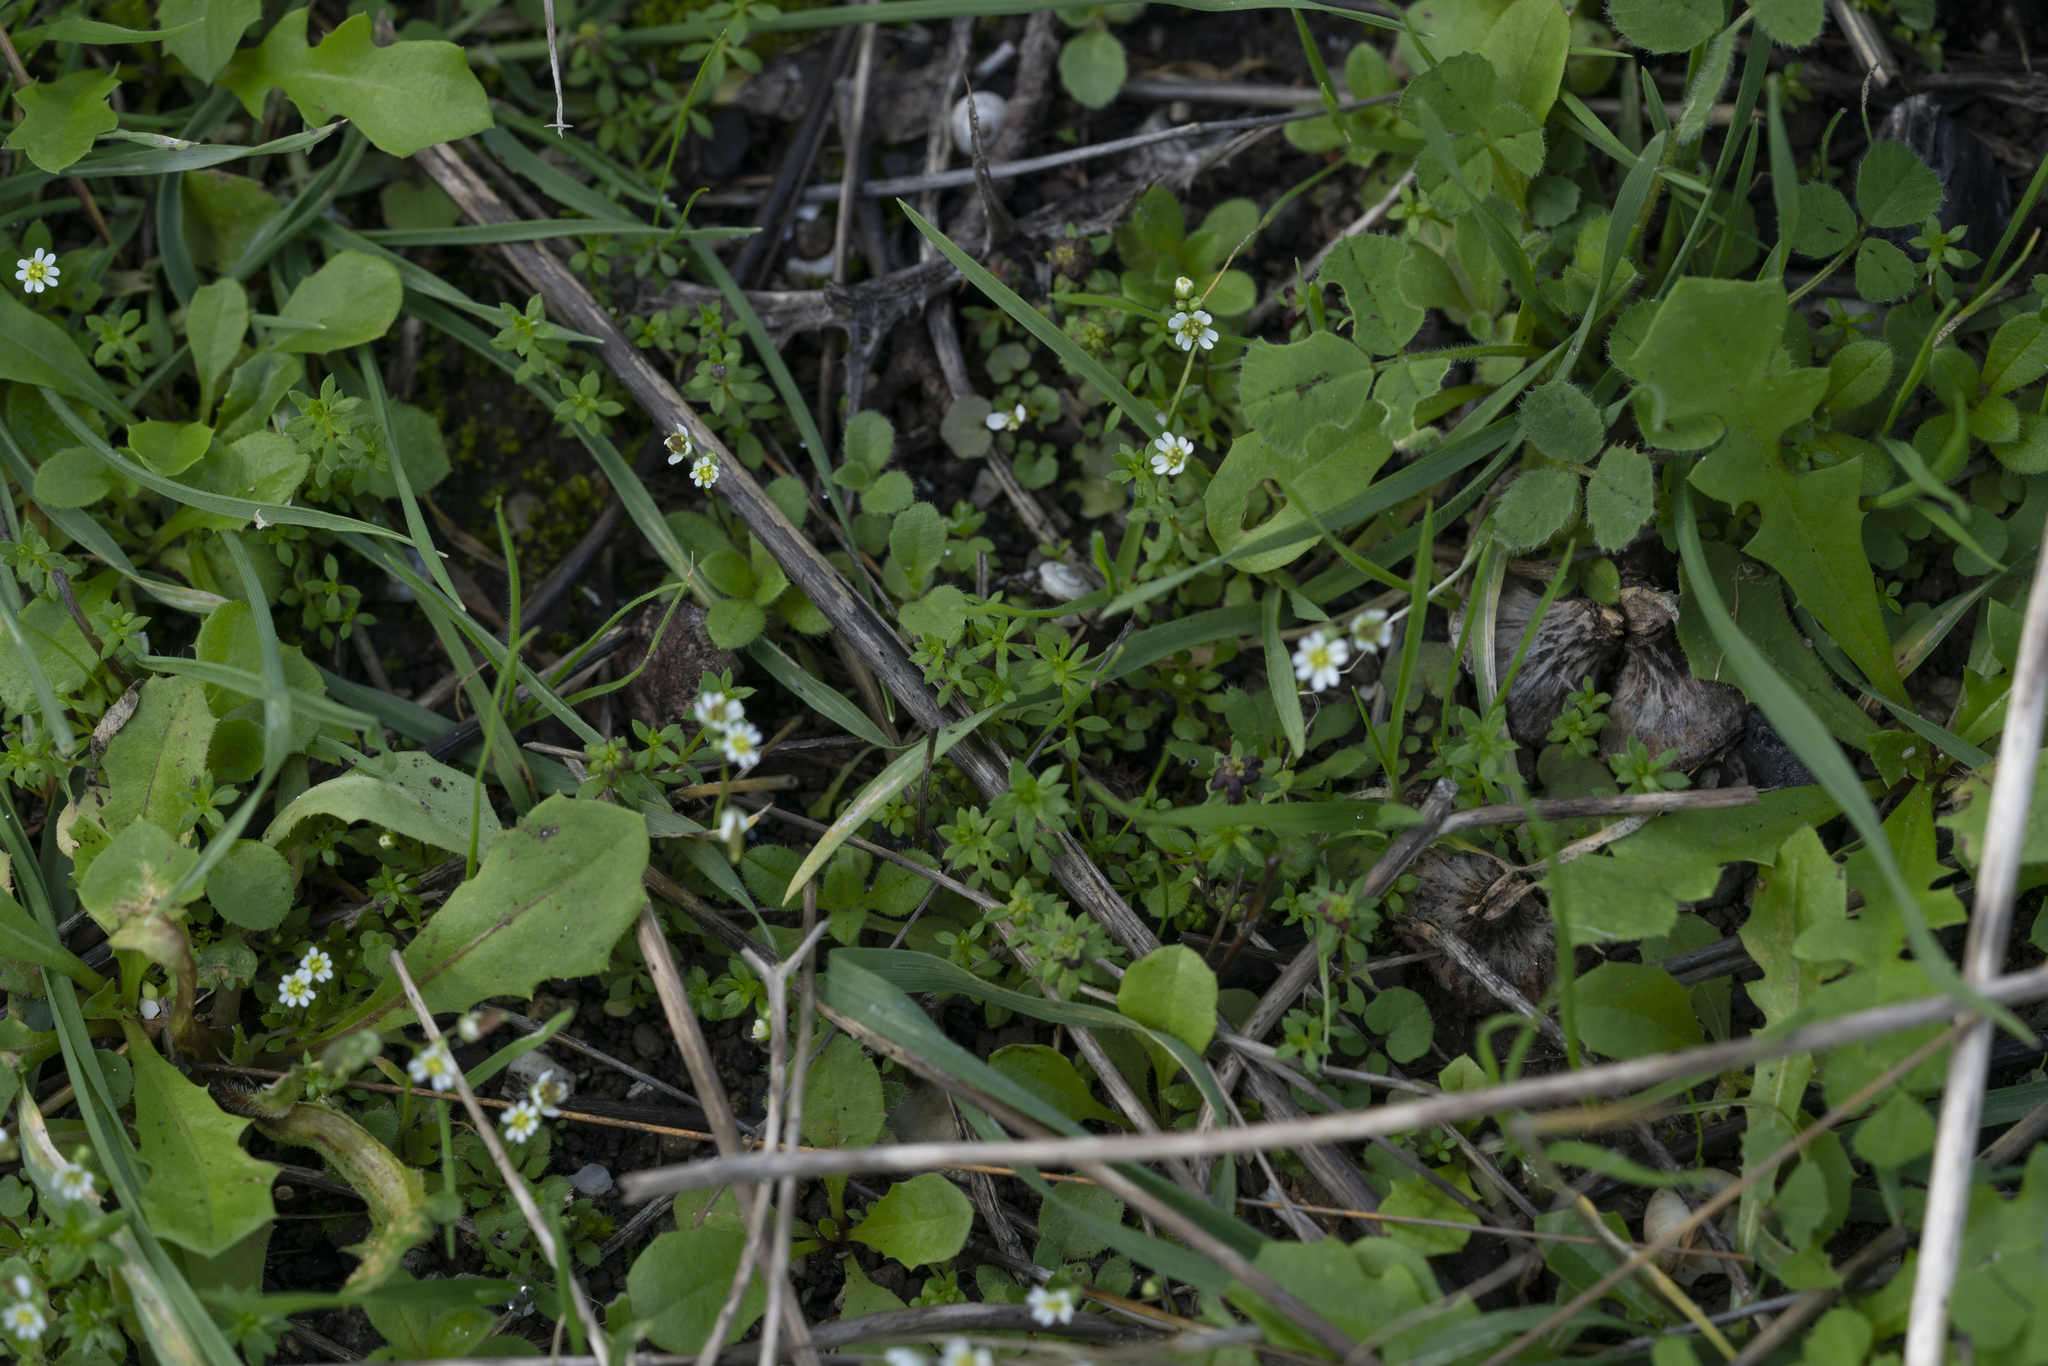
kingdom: Plantae
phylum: Tracheophyta
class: Magnoliopsida
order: Brassicales
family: Brassicaceae
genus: Draba
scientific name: Draba verna
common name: Spring draba
